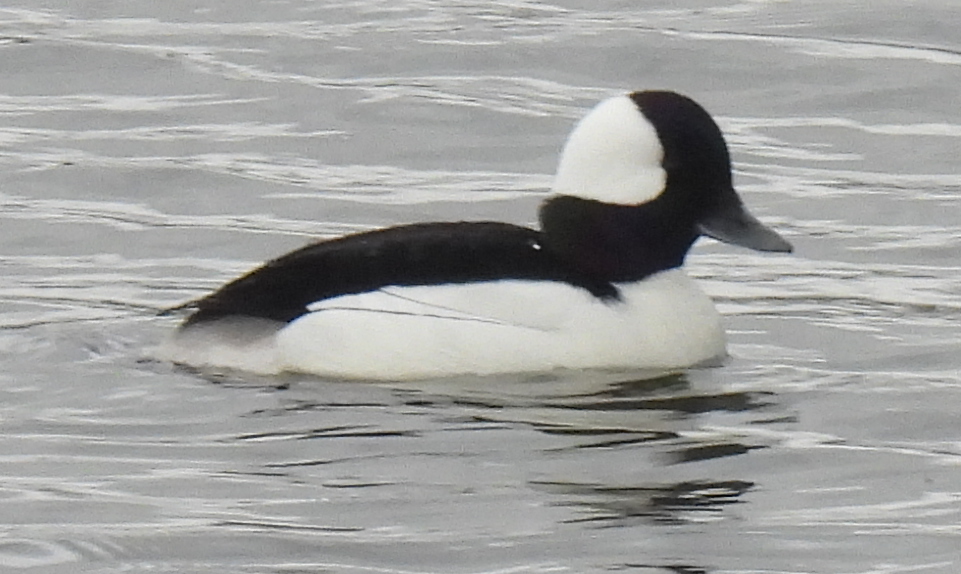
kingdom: Animalia
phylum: Chordata
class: Aves
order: Anseriformes
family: Anatidae
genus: Bucephala
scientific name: Bucephala albeola
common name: Bufflehead
